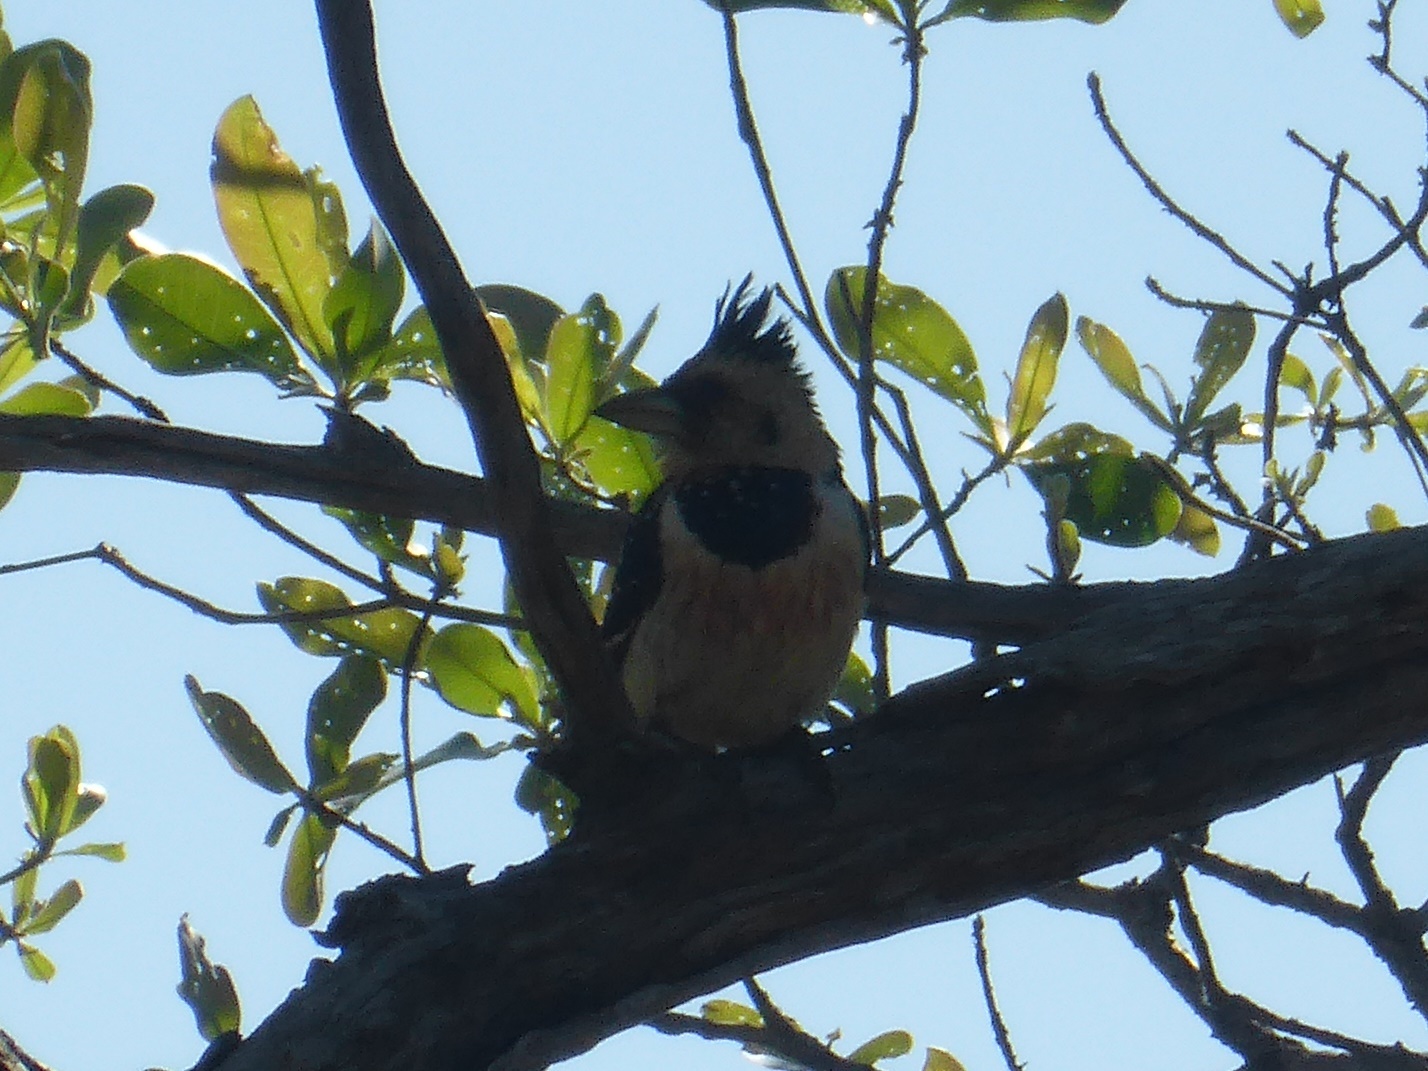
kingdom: Animalia
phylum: Chordata
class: Aves
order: Piciformes
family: Lybiidae
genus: Trachyphonus
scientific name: Trachyphonus vaillantii
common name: Crested barbet
